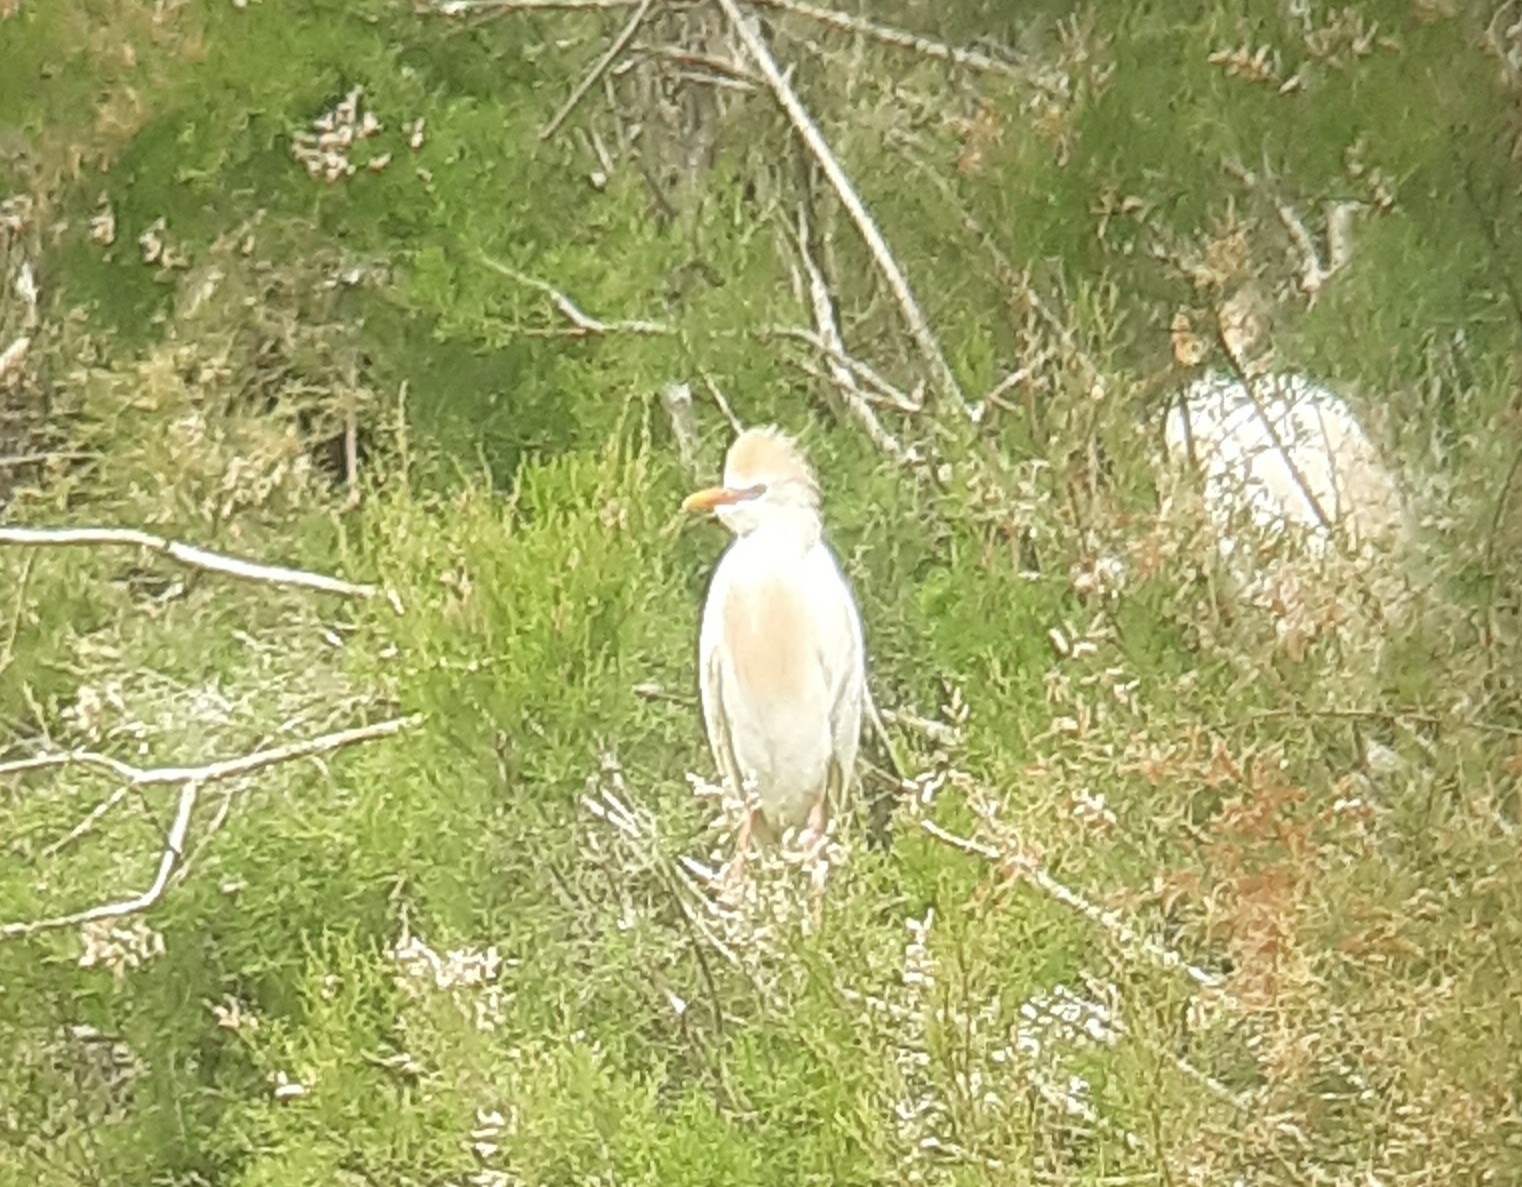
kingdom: Animalia
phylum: Chordata
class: Aves
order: Pelecaniformes
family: Ardeidae
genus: Bubulcus
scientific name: Bubulcus ibis
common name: Cattle egret
